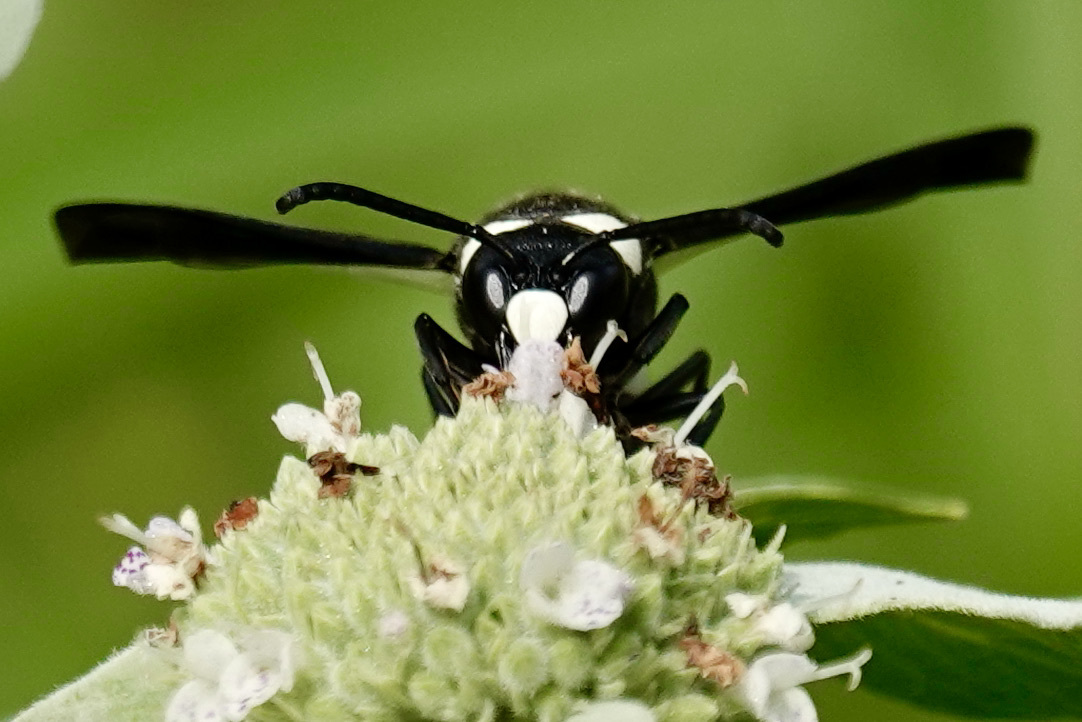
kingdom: Animalia
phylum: Arthropoda
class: Insecta
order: Hymenoptera
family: Eumenidae
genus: Monobia
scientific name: Monobia quadridens
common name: Four-toothed mason wasp
